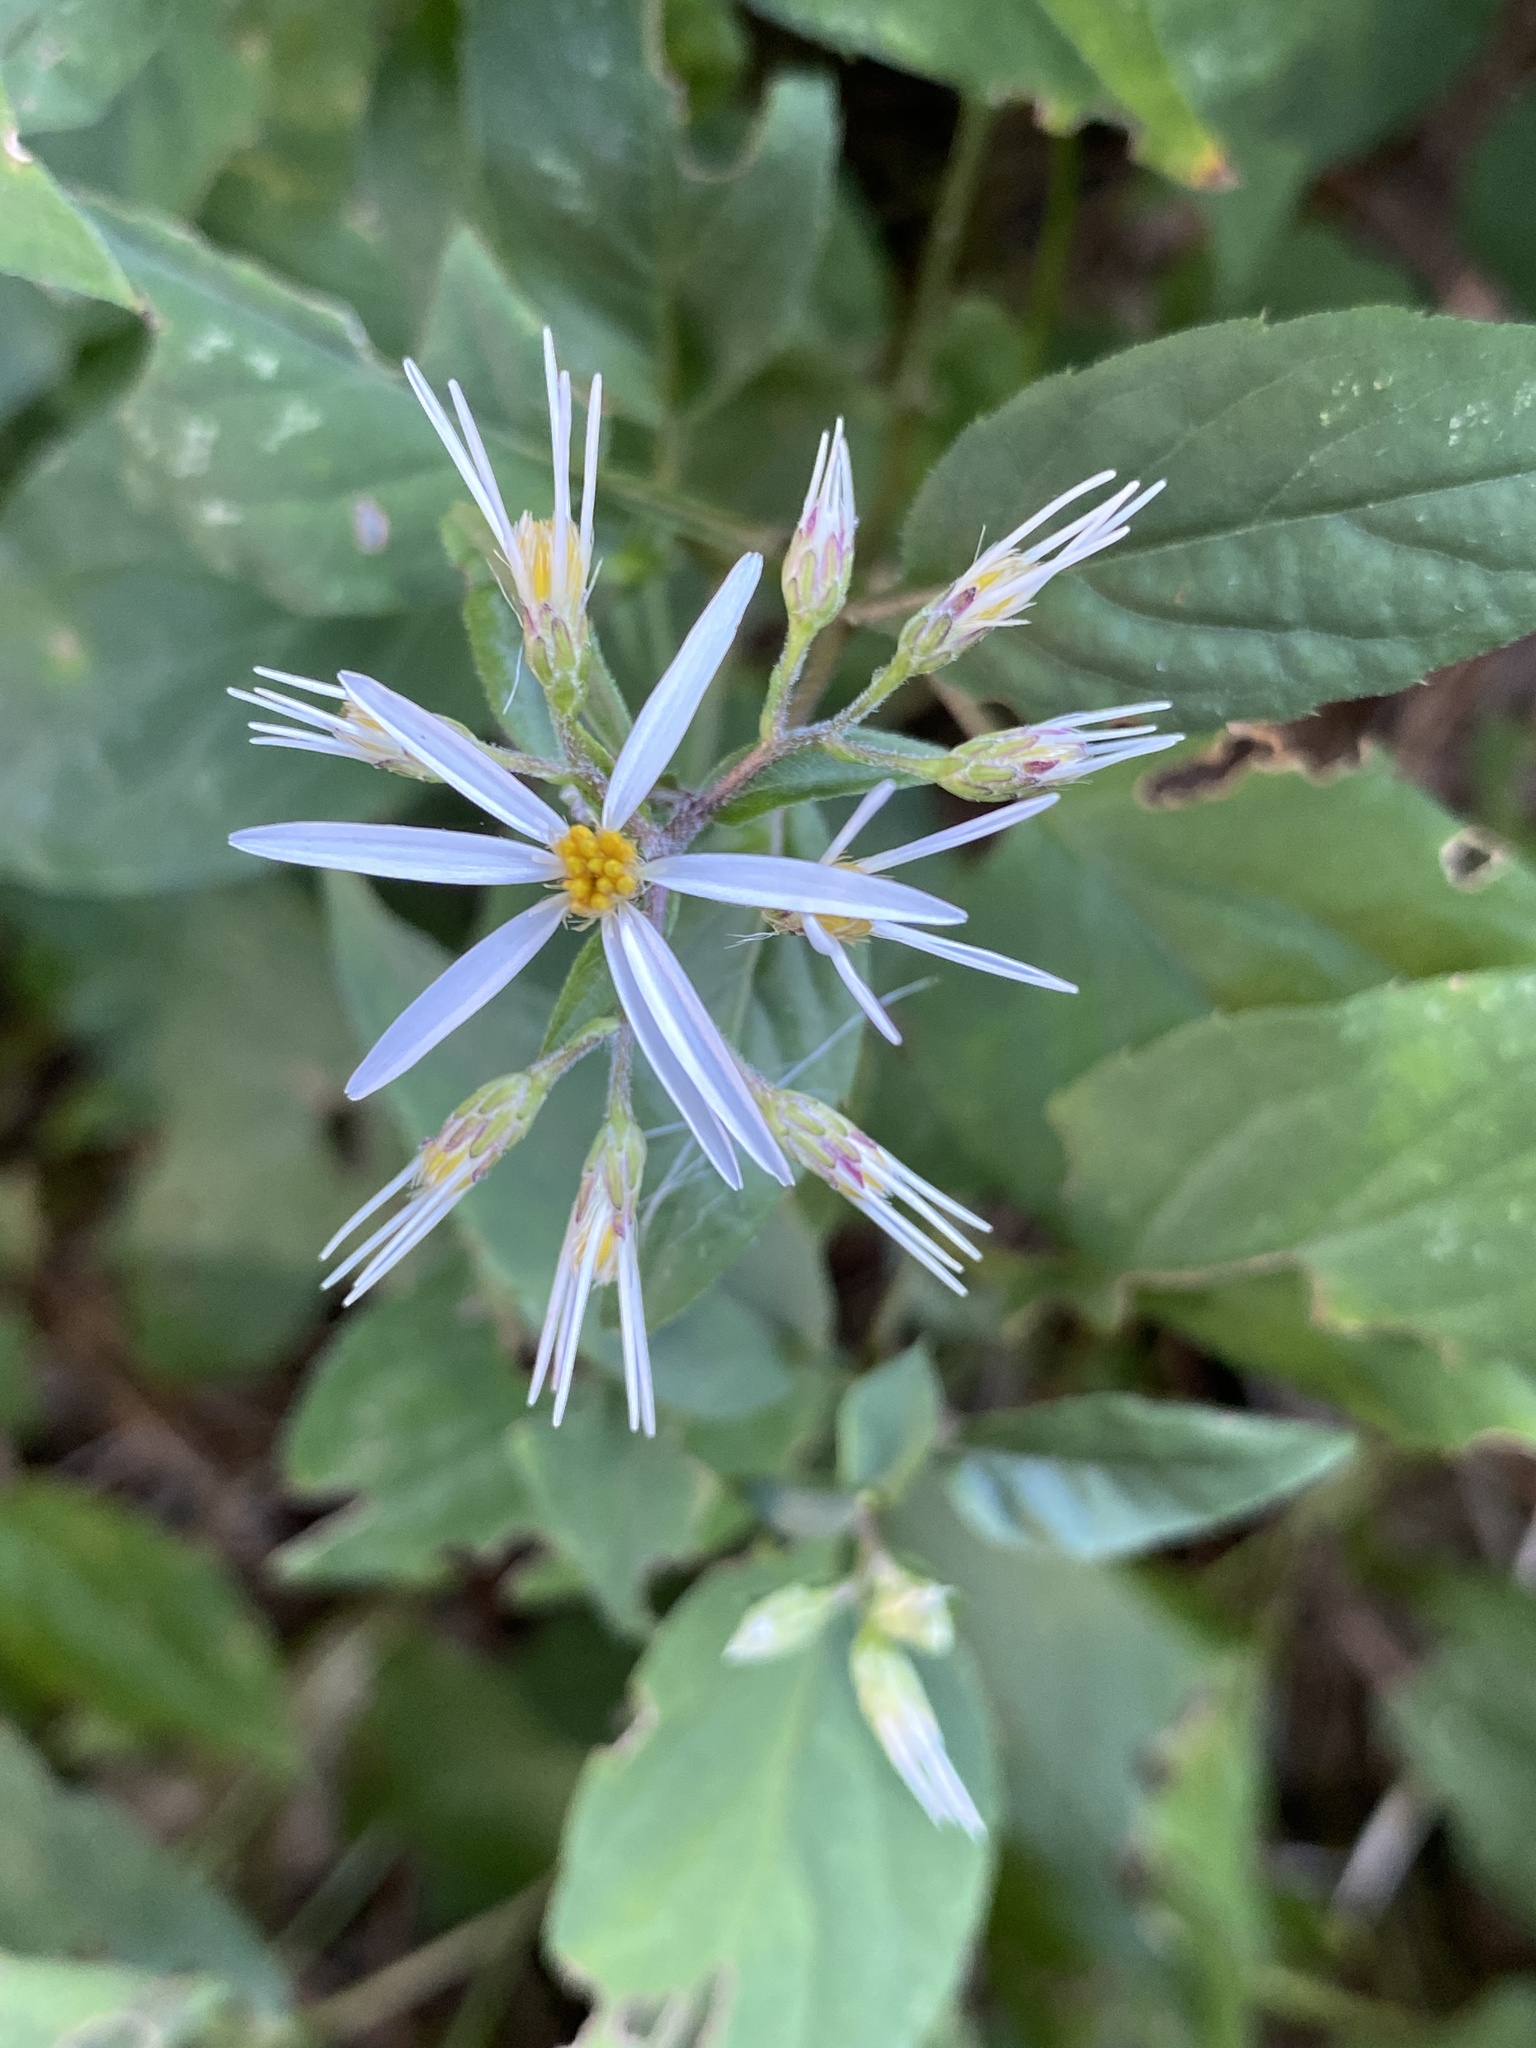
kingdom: Plantae
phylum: Tracheophyta
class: Magnoliopsida
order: Asterales
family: Asteraceae
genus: Eurybia
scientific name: Eurybia divaricata
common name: White wood aster
